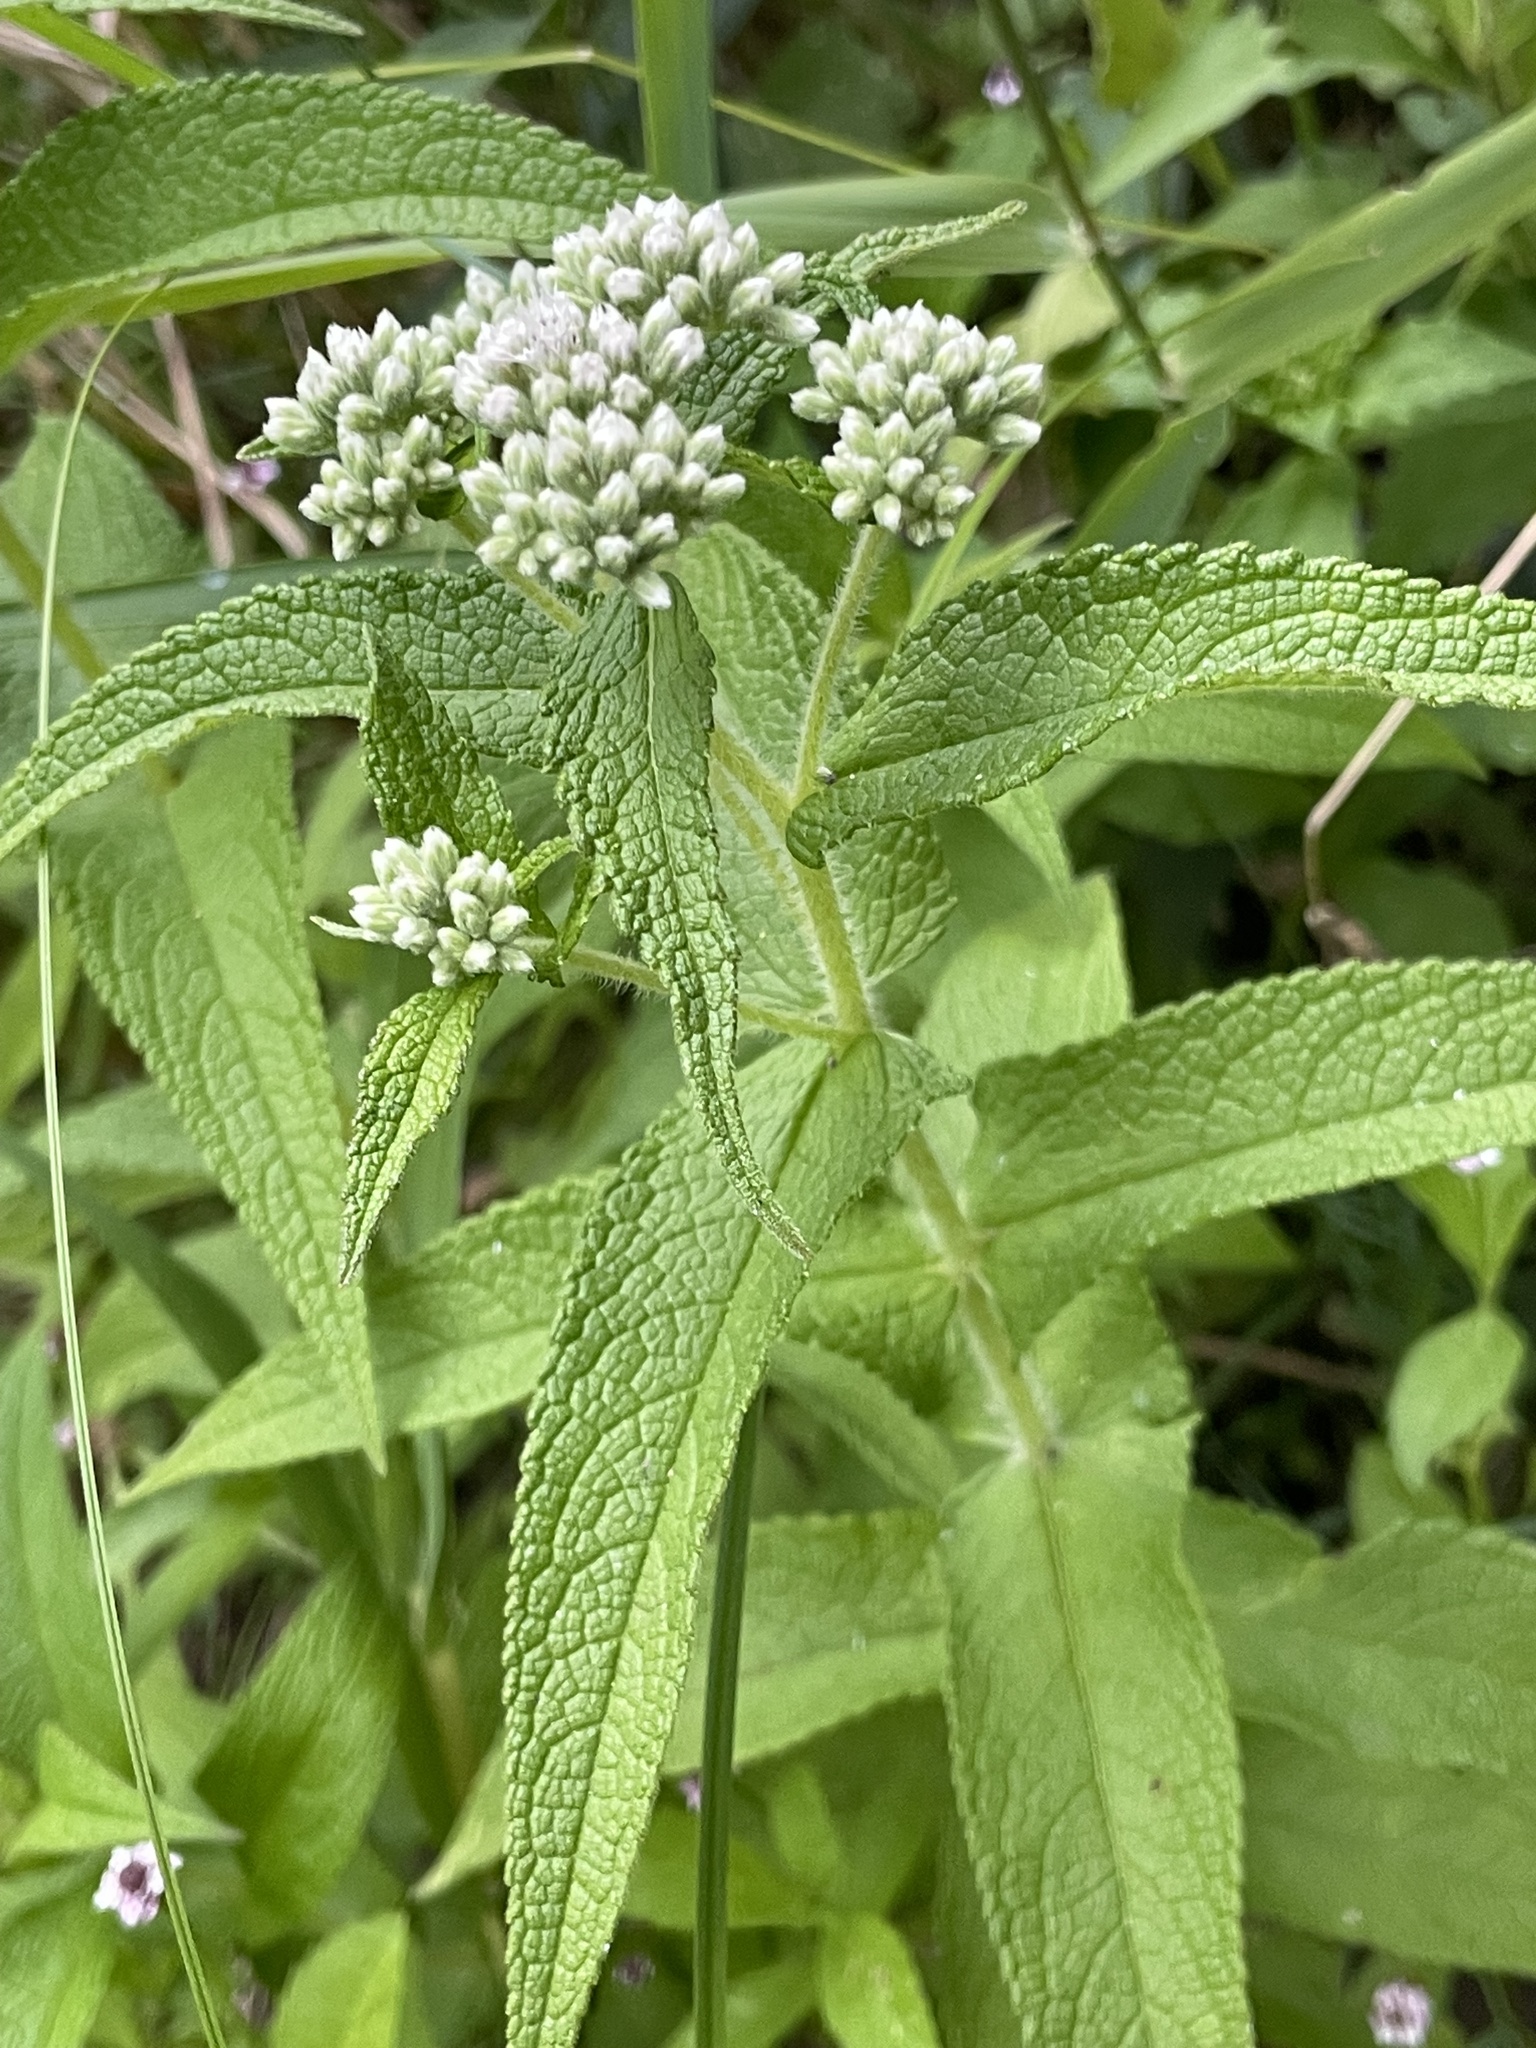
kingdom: Plantae
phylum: Tracheophyta
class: Magnoliopsida
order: Asterales
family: Asteraceae
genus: Eupatorium
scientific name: Eupatorium perfoliatum
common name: Boneset
